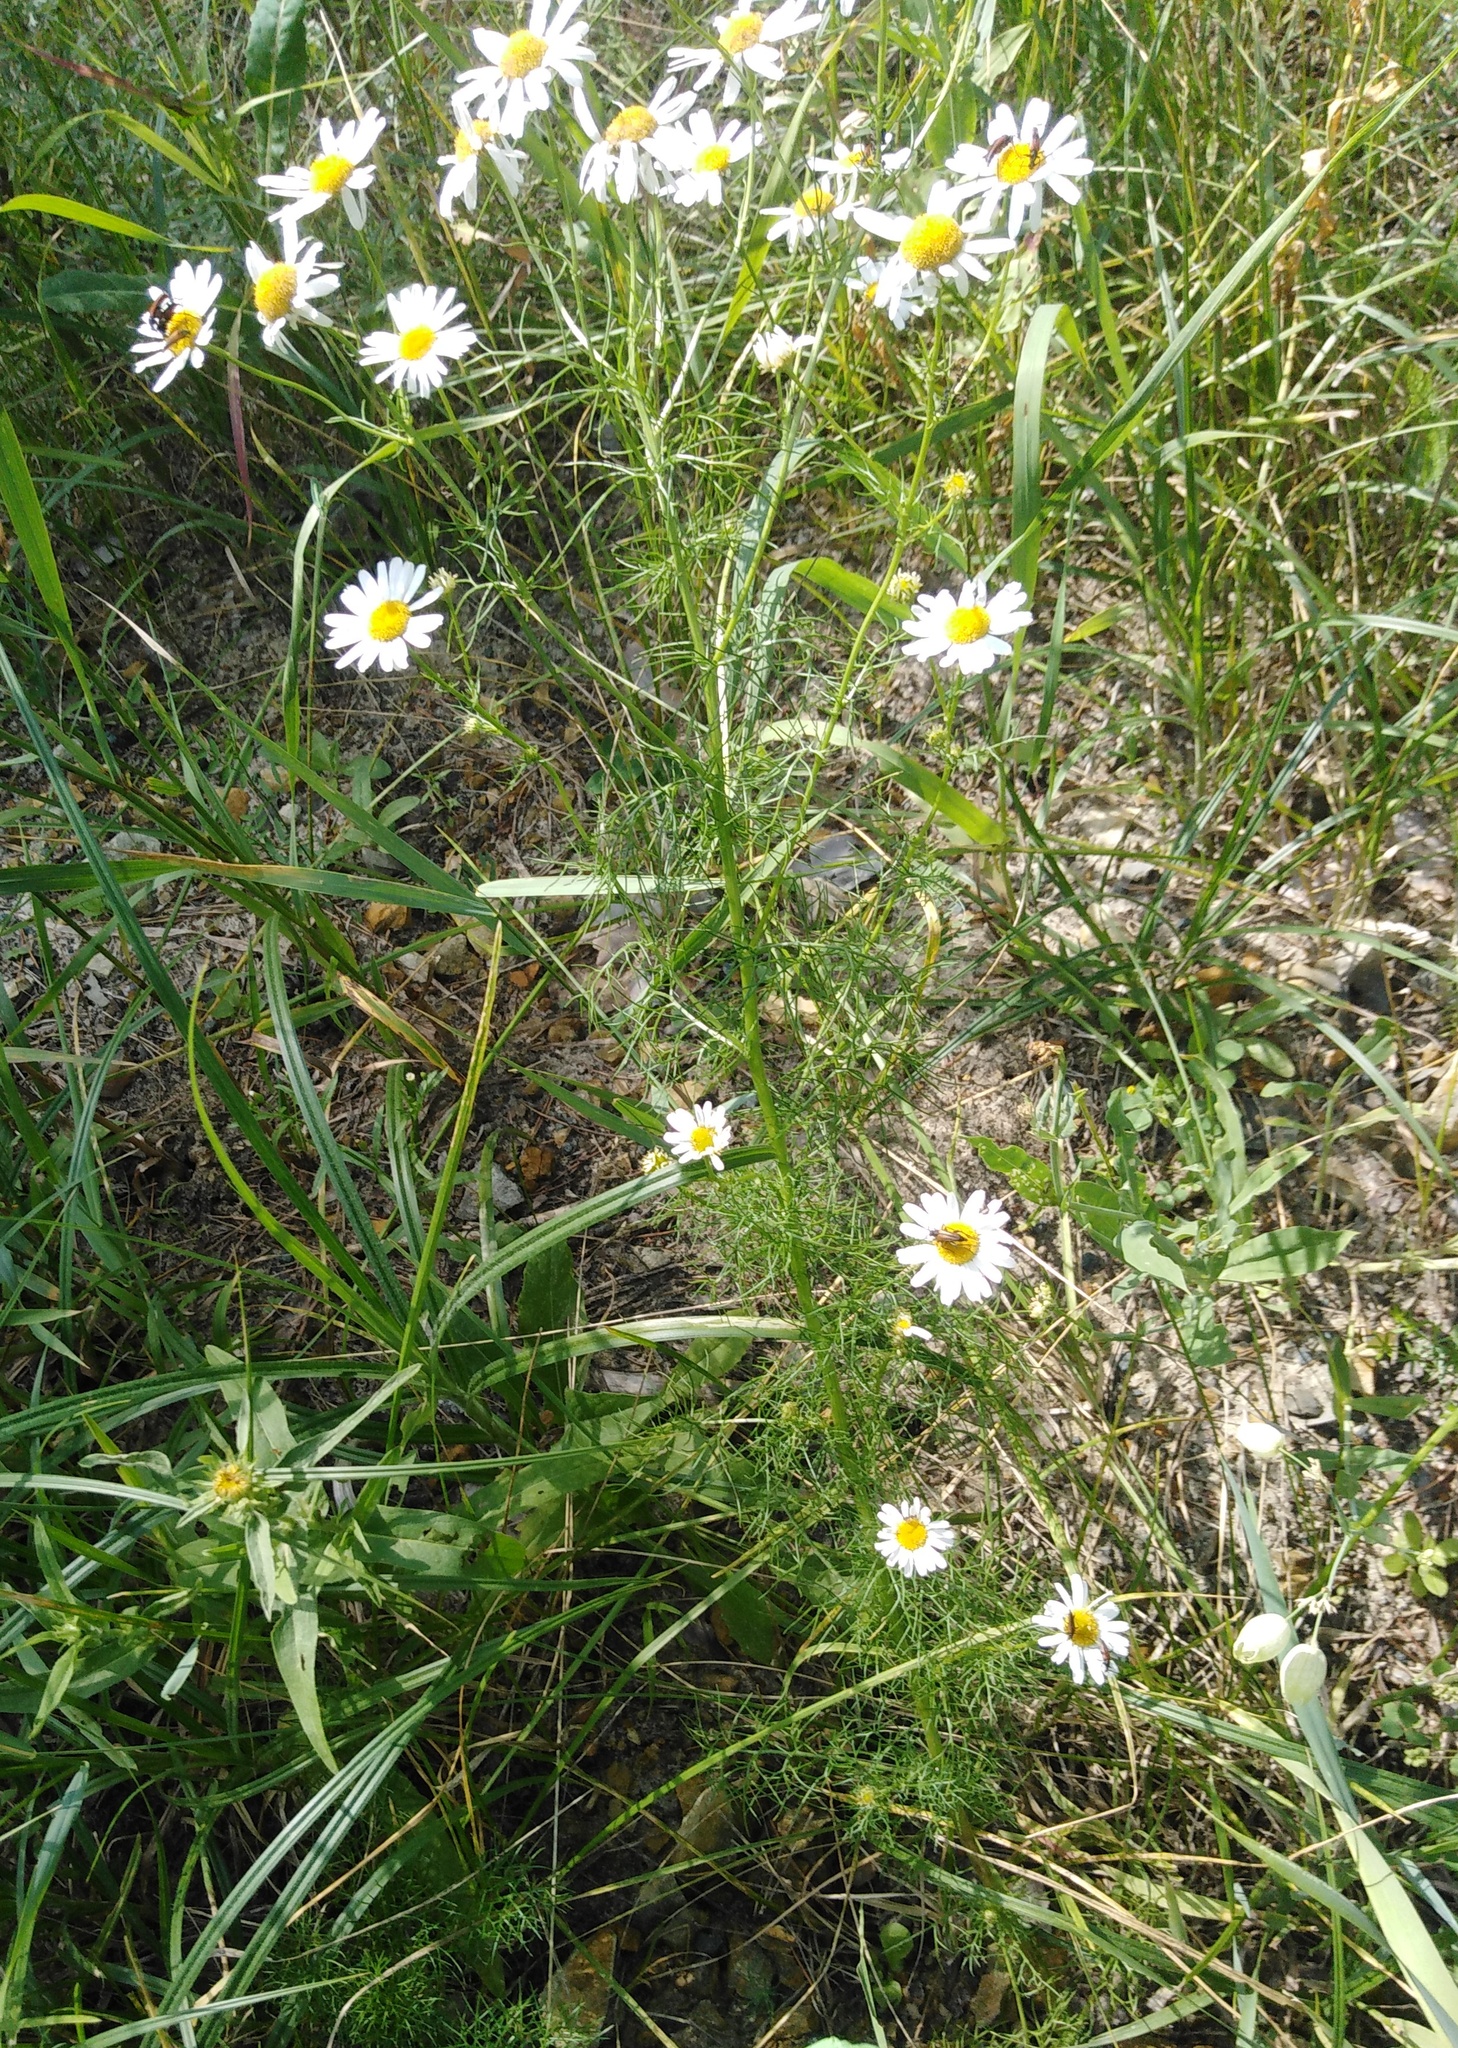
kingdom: Plantae
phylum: Tracheophyta
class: Magnoliopsida
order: Asterales
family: Asteraceae
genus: Tripleurospermum
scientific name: Tripleurospermum inodorum
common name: Scentless mayweed
